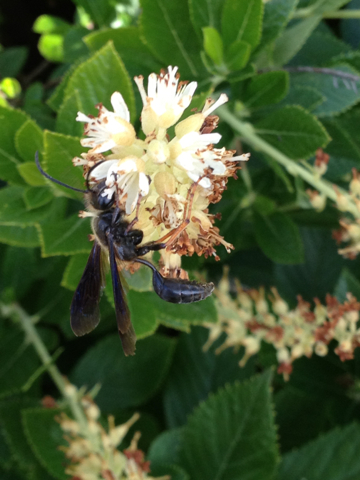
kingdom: Animalia
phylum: Arthropoda
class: Insecta
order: Hymenoptera
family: Sphecidae
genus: Isodontia
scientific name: Isodontia auripes
